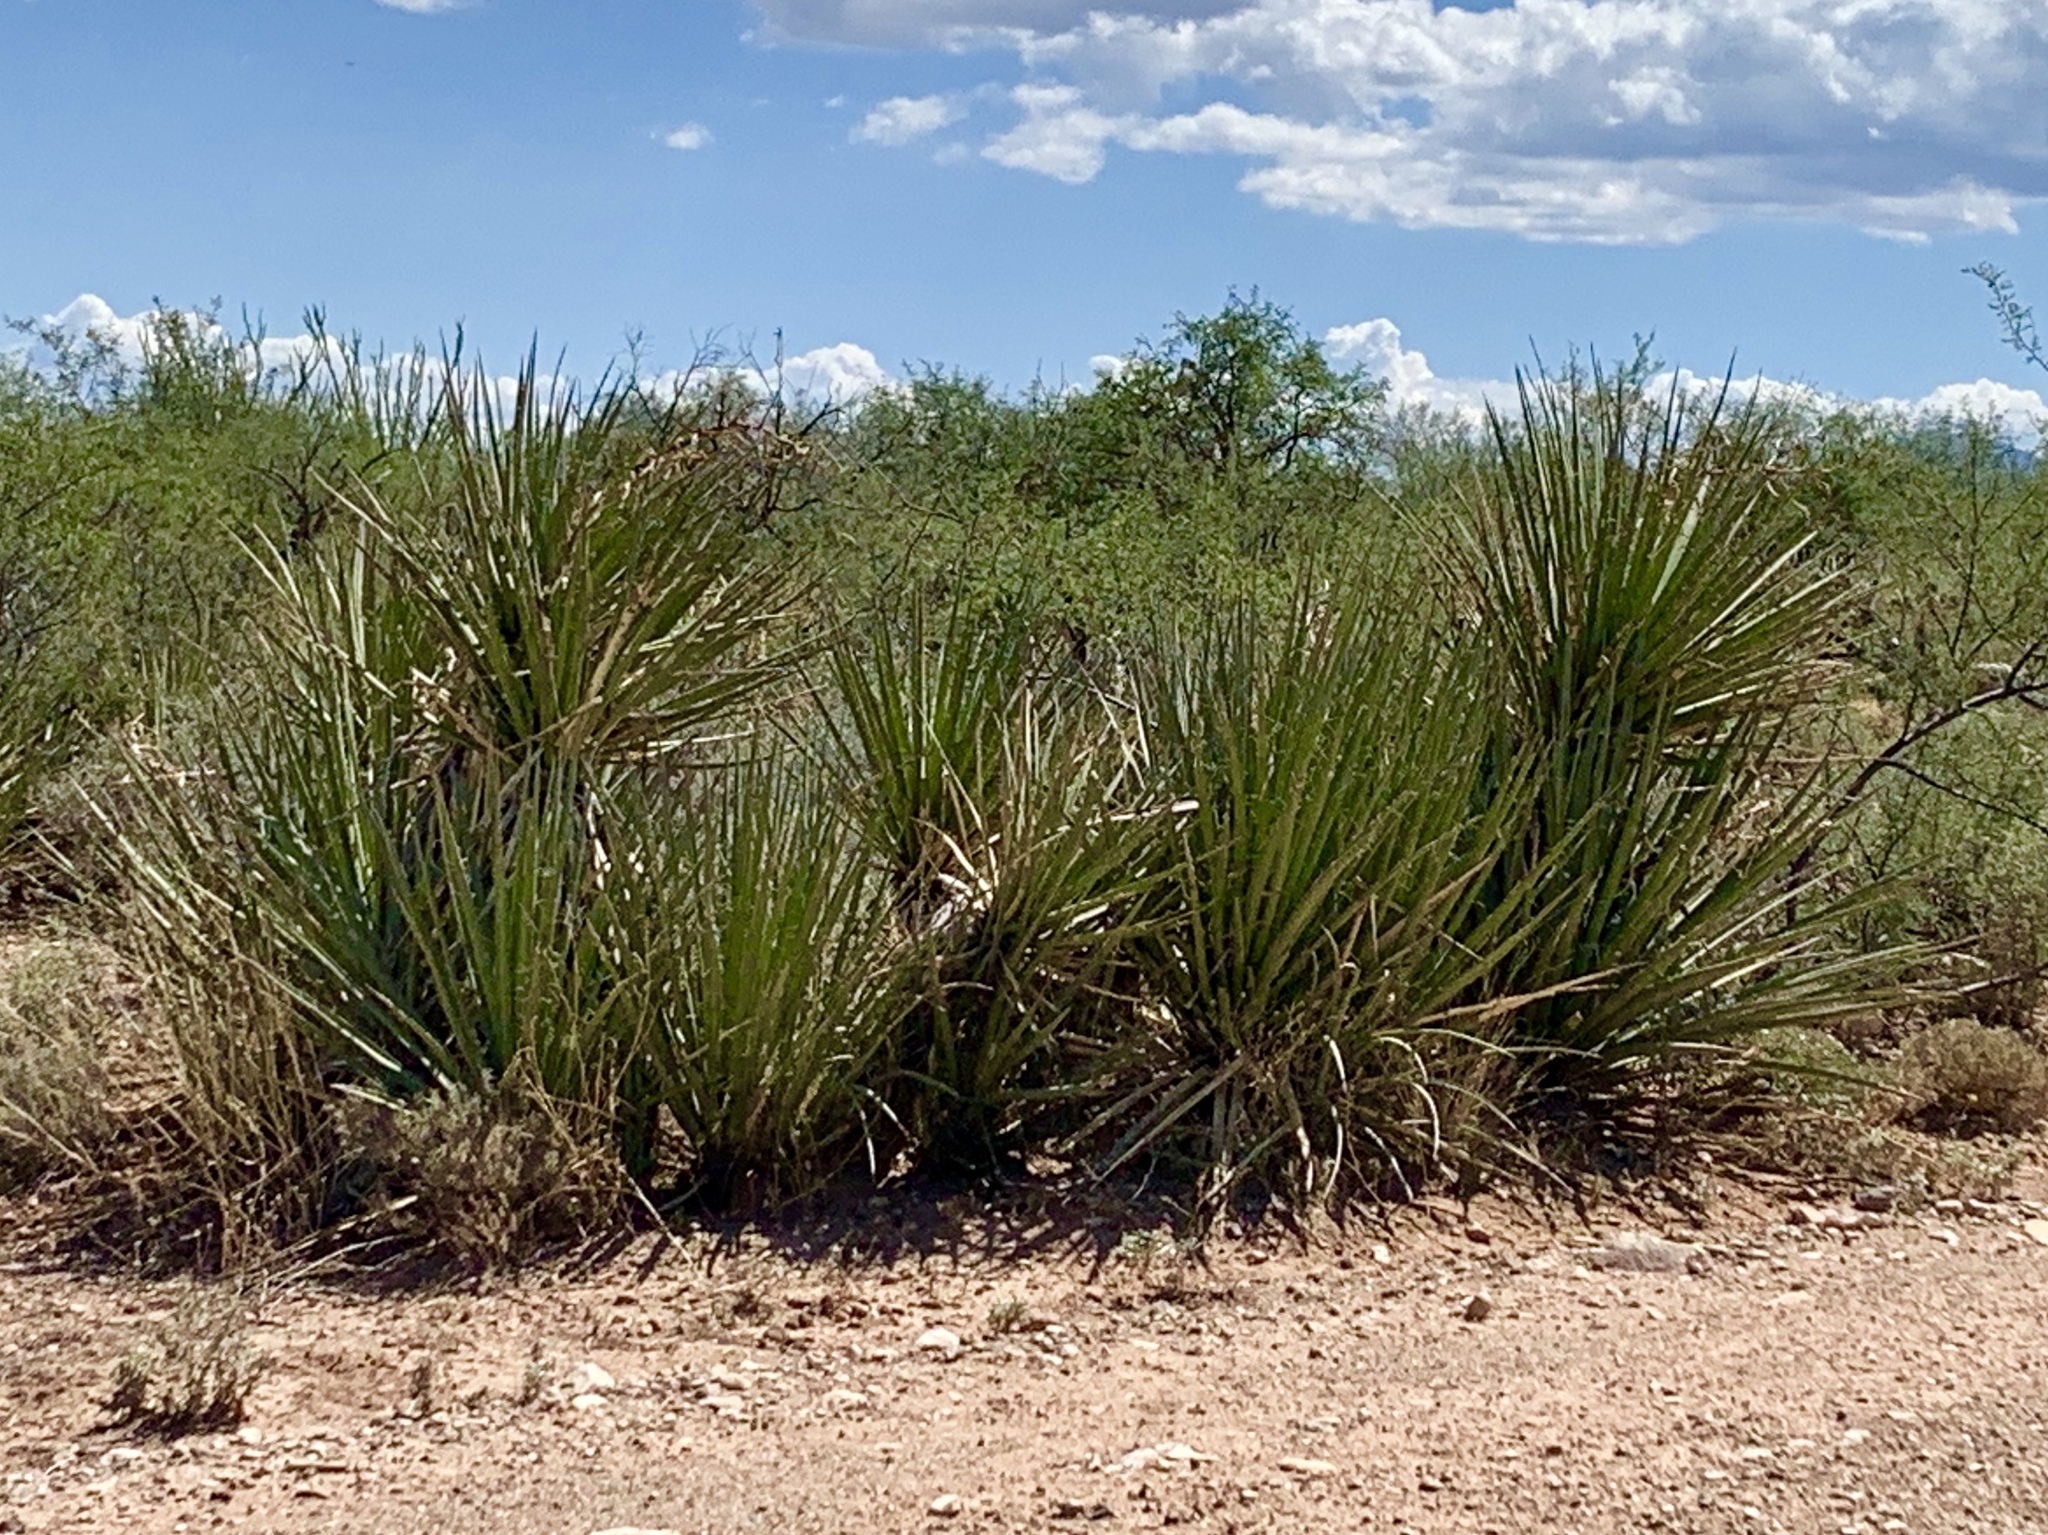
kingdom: Plantae
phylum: Tracheophyta
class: Liliopsida
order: Asparagales
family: Asparagaceae
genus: Yucca
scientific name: Yucca baccata
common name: Banana yucca
